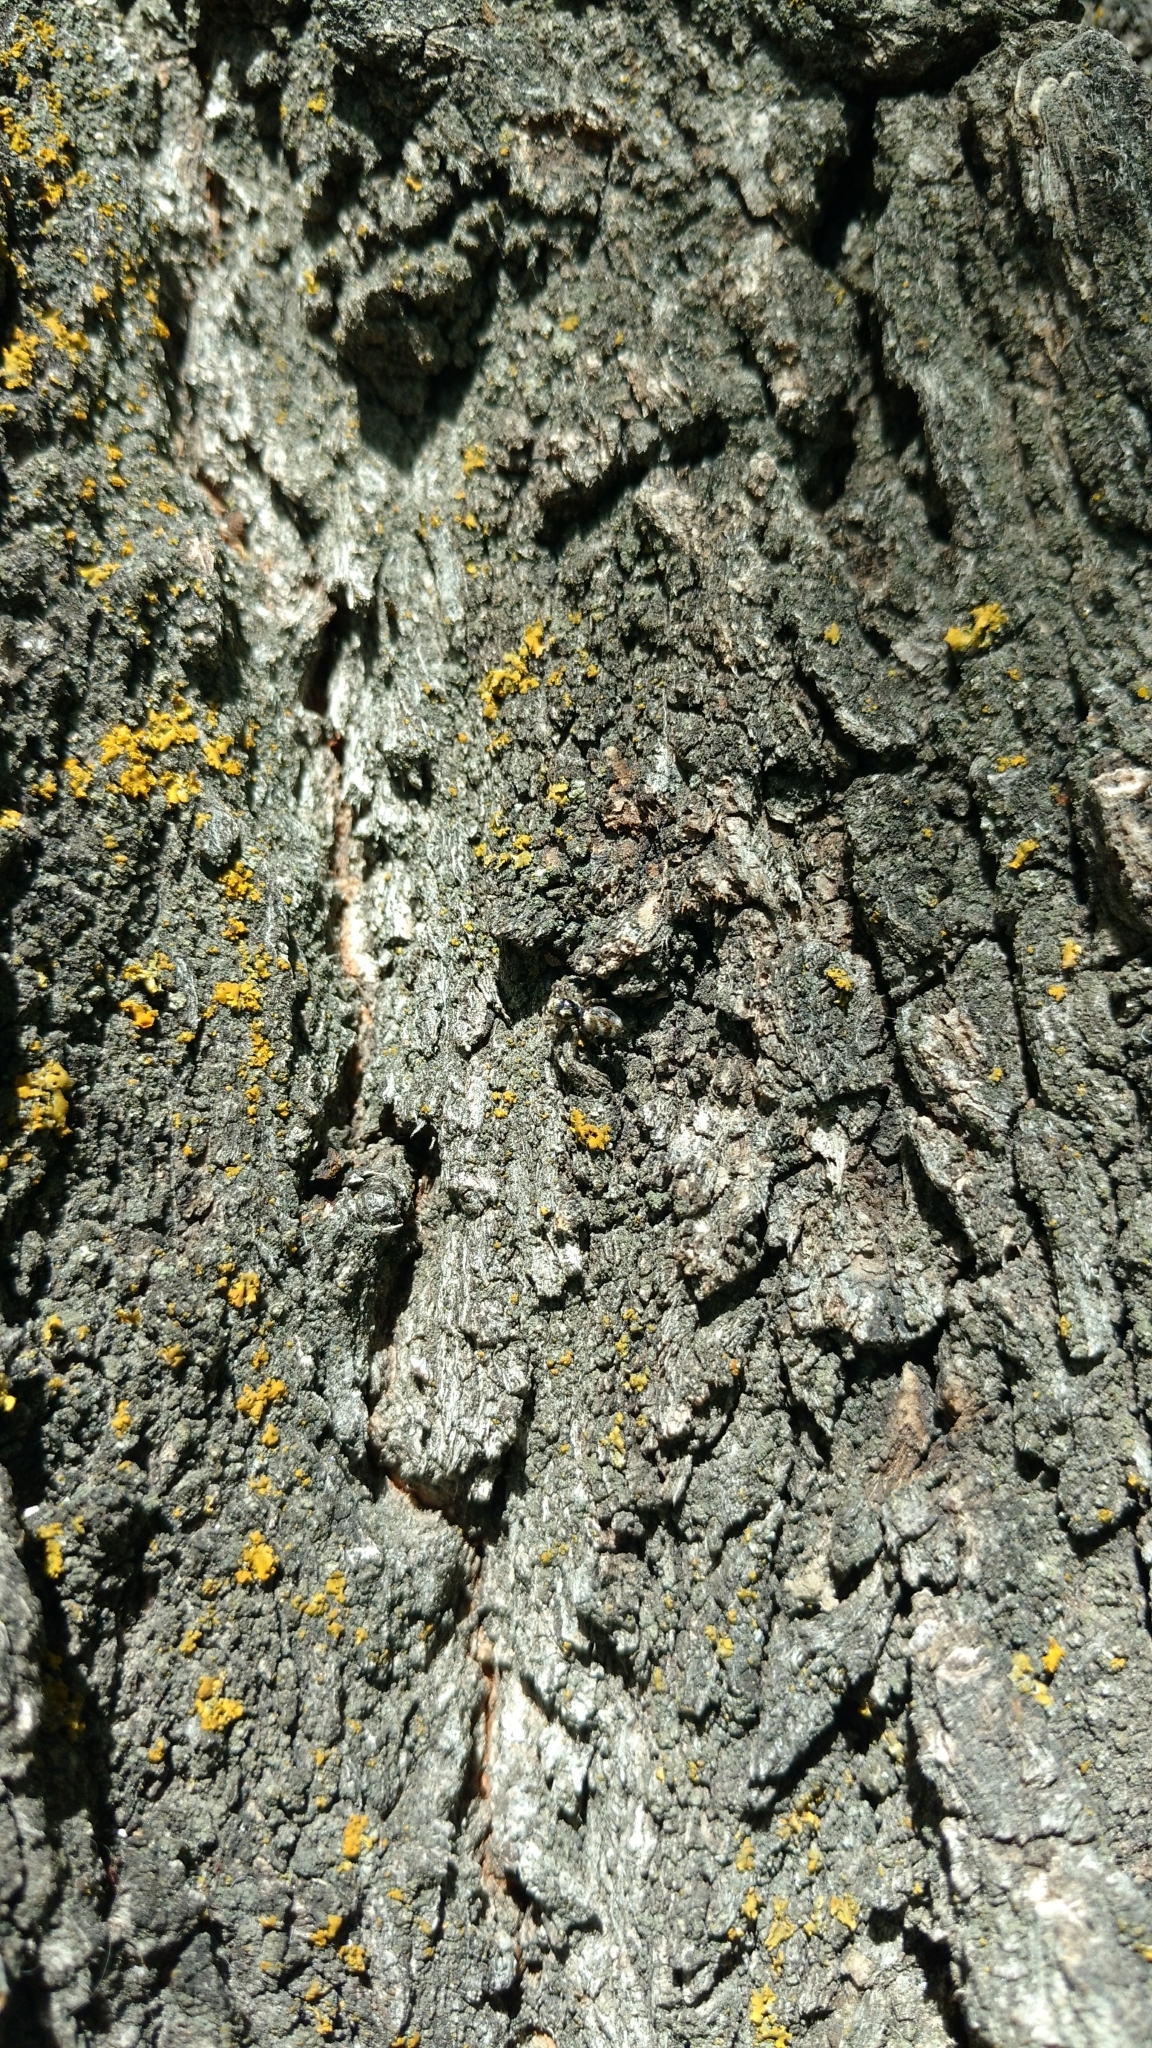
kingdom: Animalia
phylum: Arthropoda
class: Arachnida
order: Araneae
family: Salticidae
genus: Salticus
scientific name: Salticus scenicus
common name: Zebra jumper
